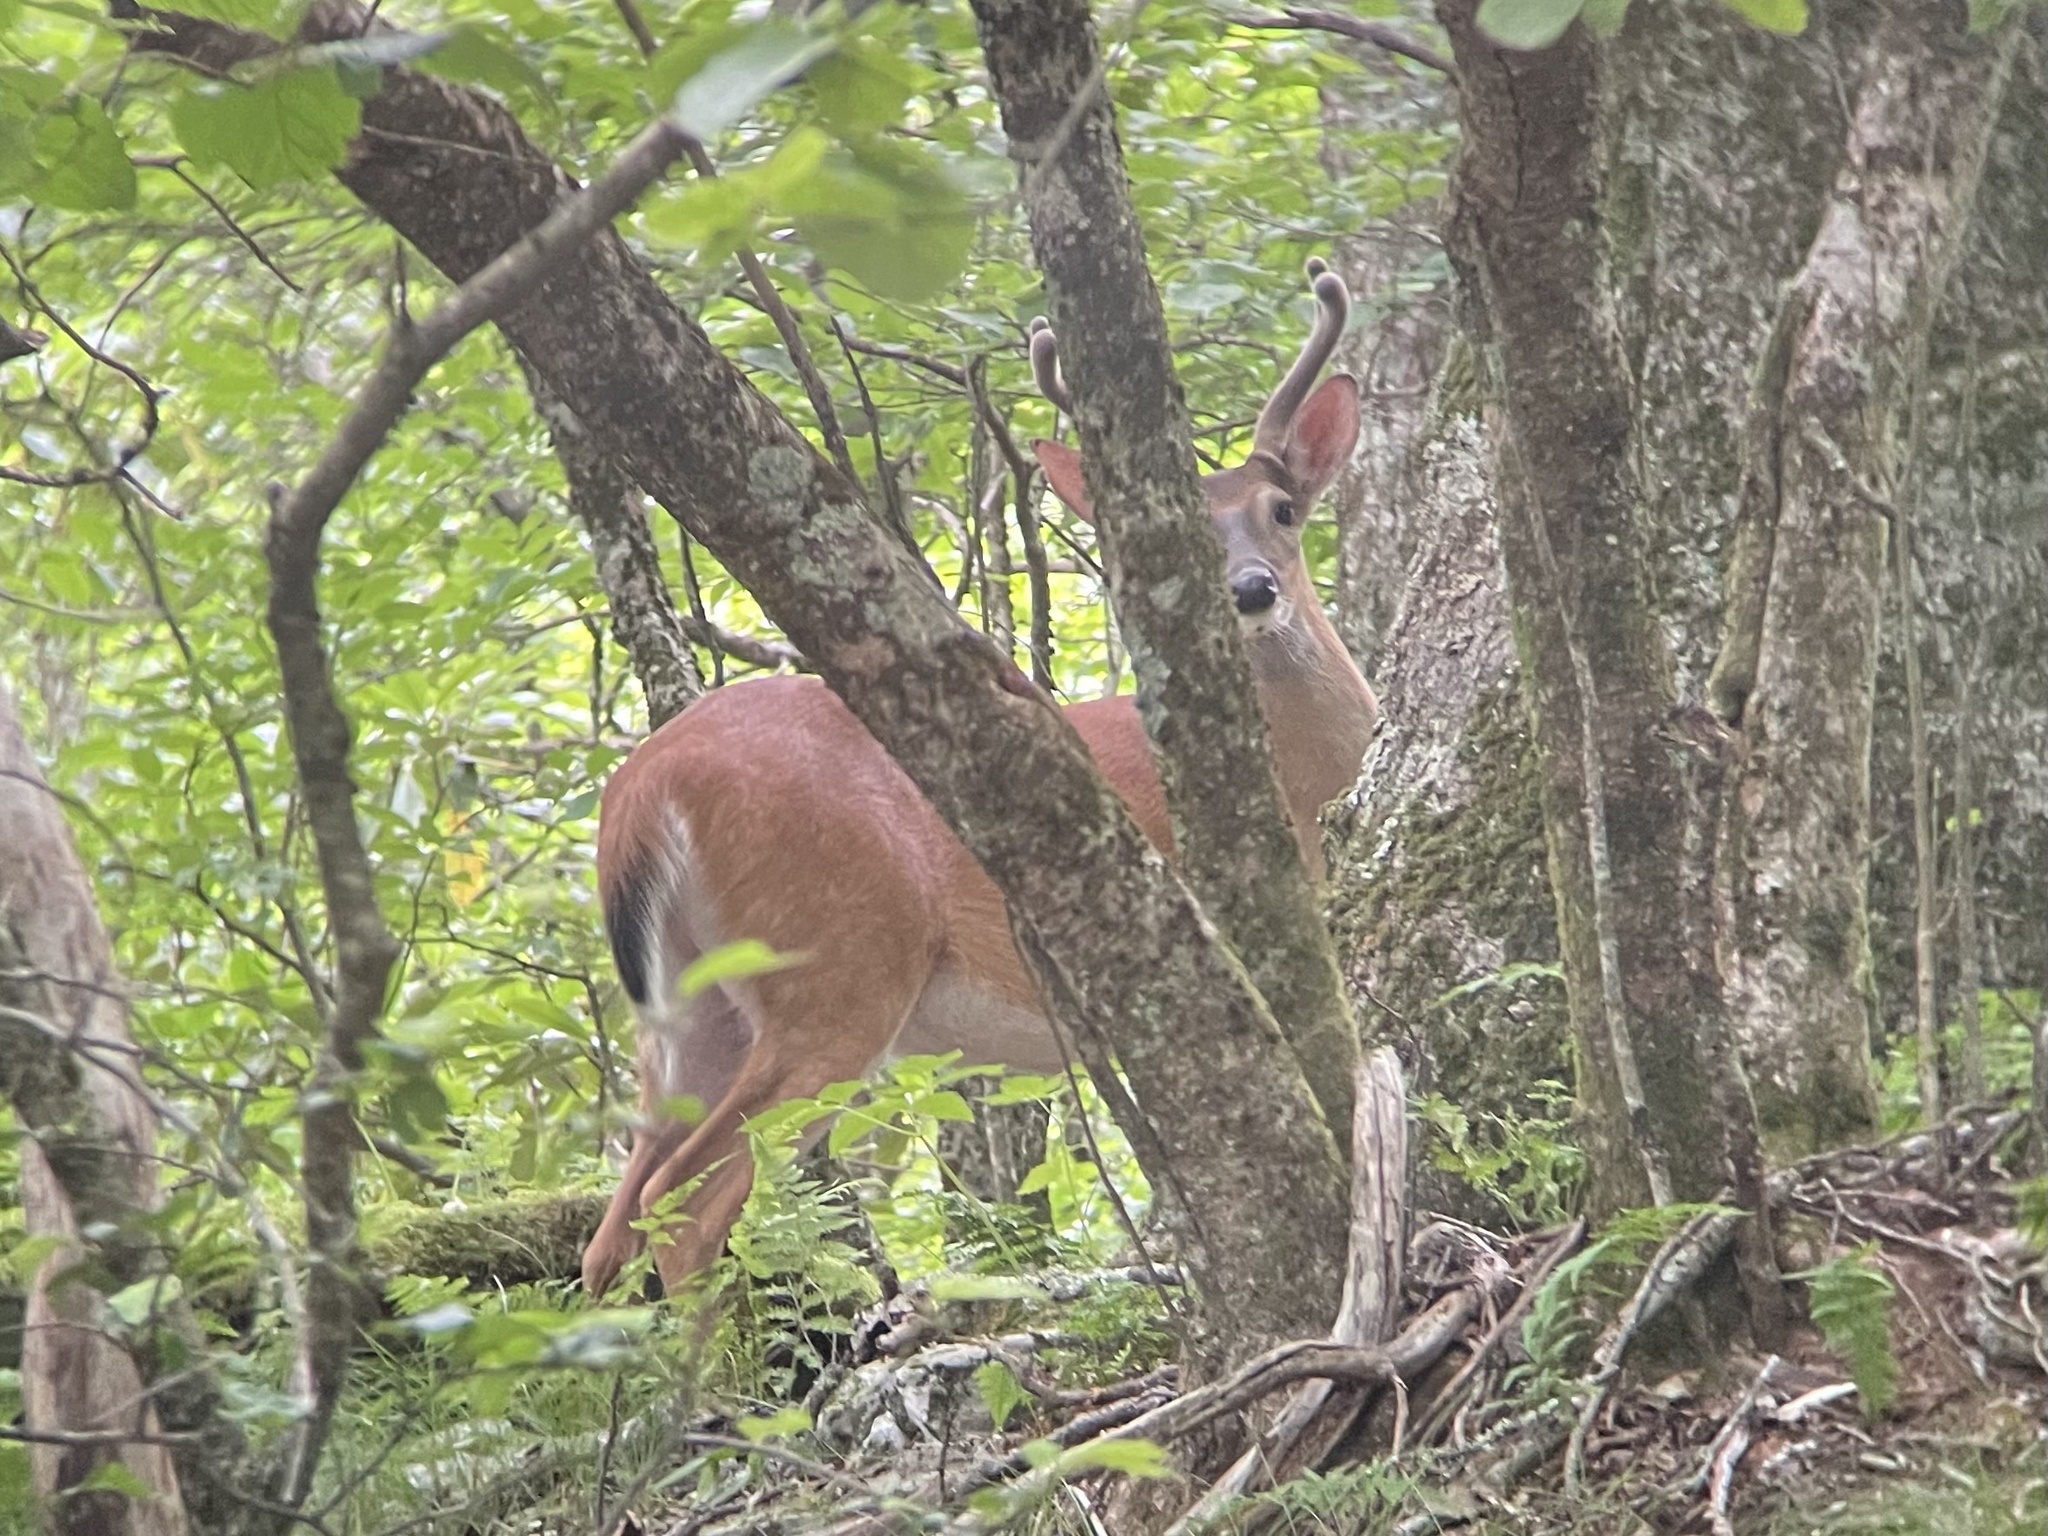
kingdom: Animalia
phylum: Chordata
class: Mammalia
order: Artiodactyla
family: Cervidae
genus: Odocoileus
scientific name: Odocoileus virginianus
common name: White-tailed deer
